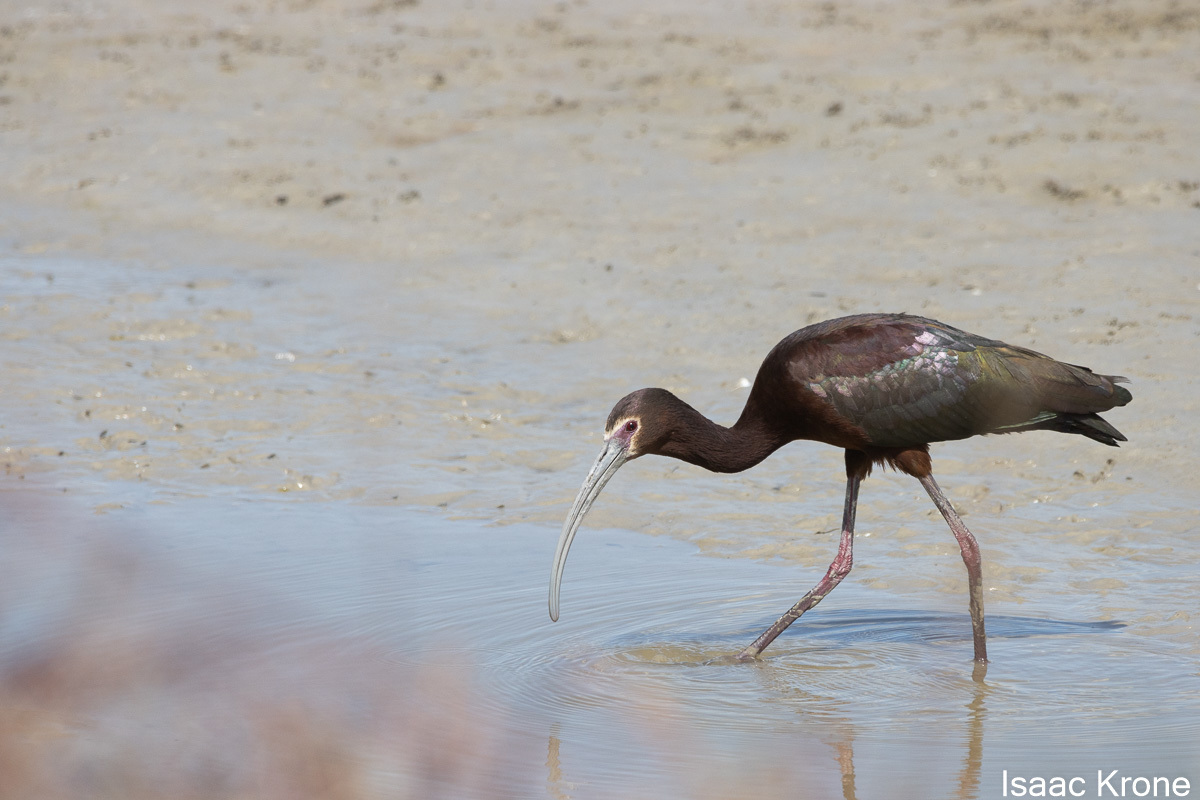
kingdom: Animalia
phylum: Chordata
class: Aves
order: Pelecaniformes
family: Threskiornithidae
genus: Plegadis
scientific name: Plegadis chihi
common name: White-faced ibis
